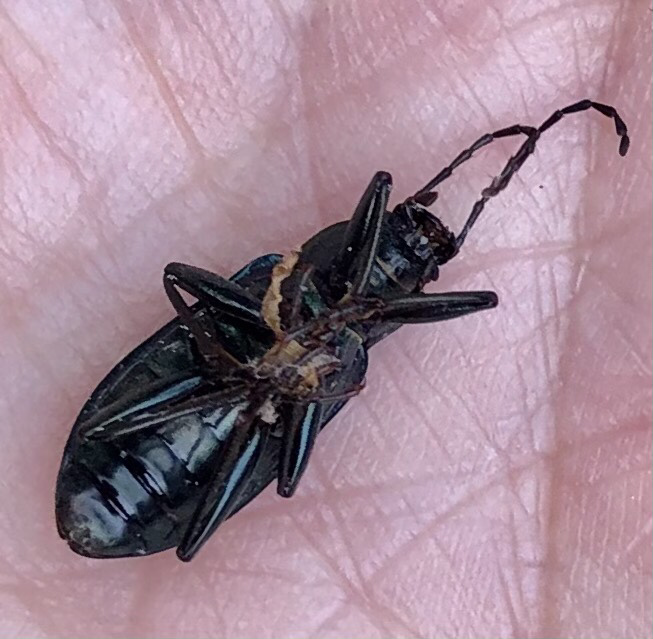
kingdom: Animalia
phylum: Arthropoda
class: Insecta
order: Coleoptera
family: Tenebrionidae
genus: Tarpela
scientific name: Tarpela micans
